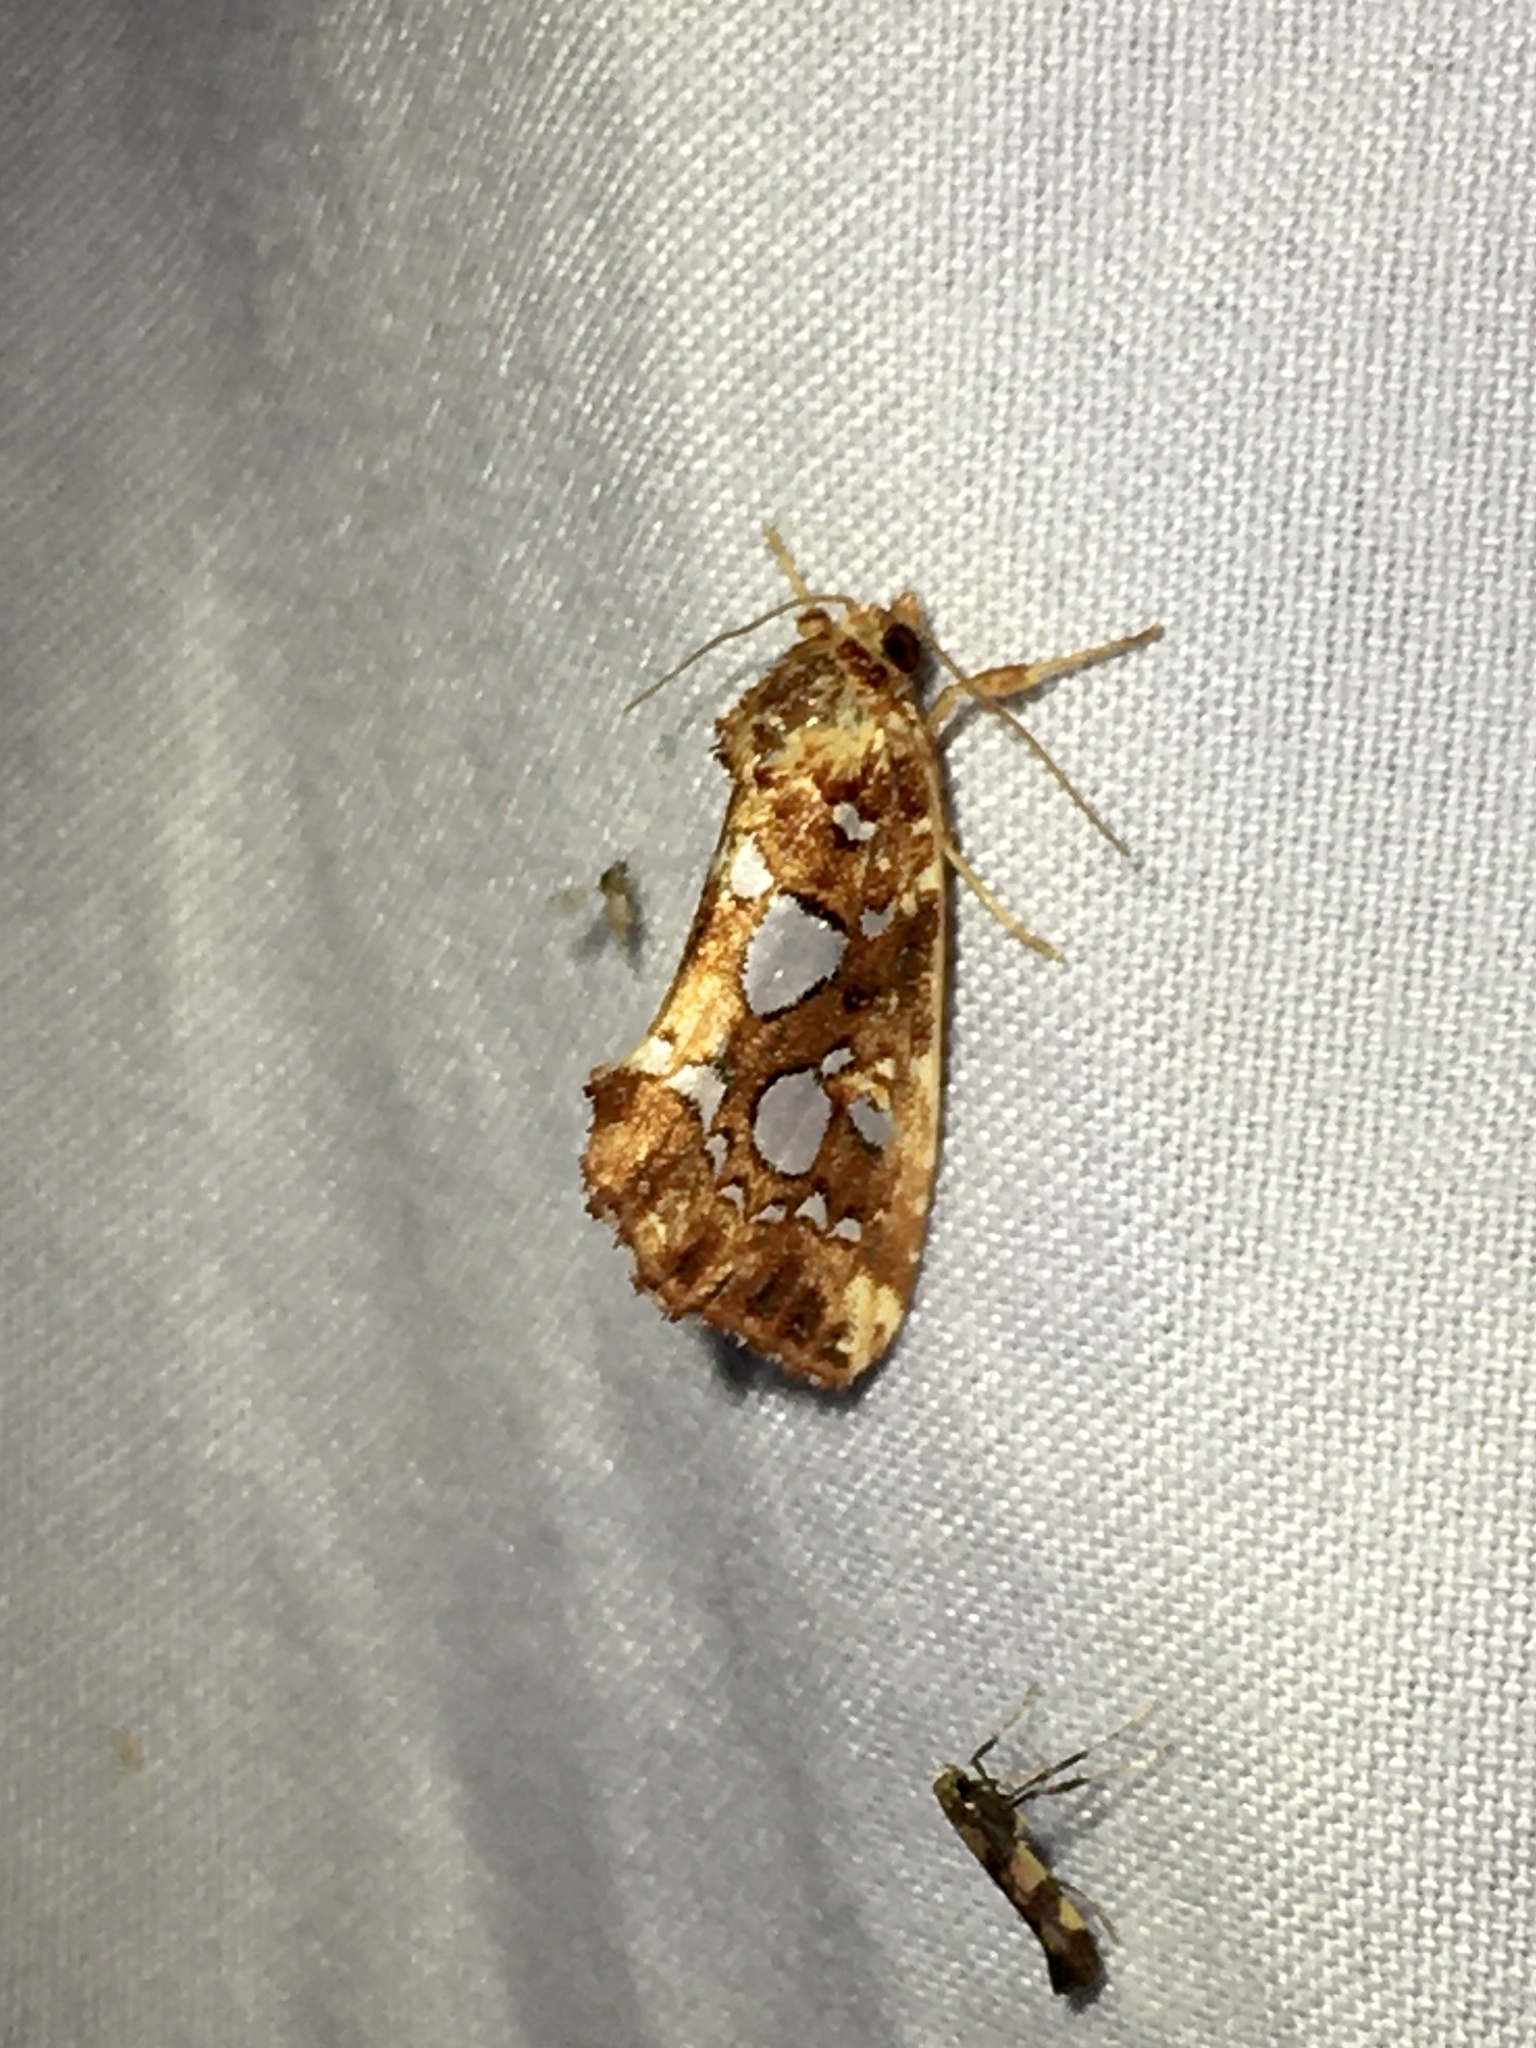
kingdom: Animalia
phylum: Arthropoda
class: Insecta
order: Lepidoptera
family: Noctuidae
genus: Callopistria
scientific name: Callopistria cordata
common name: Silver-spotted fern moth
